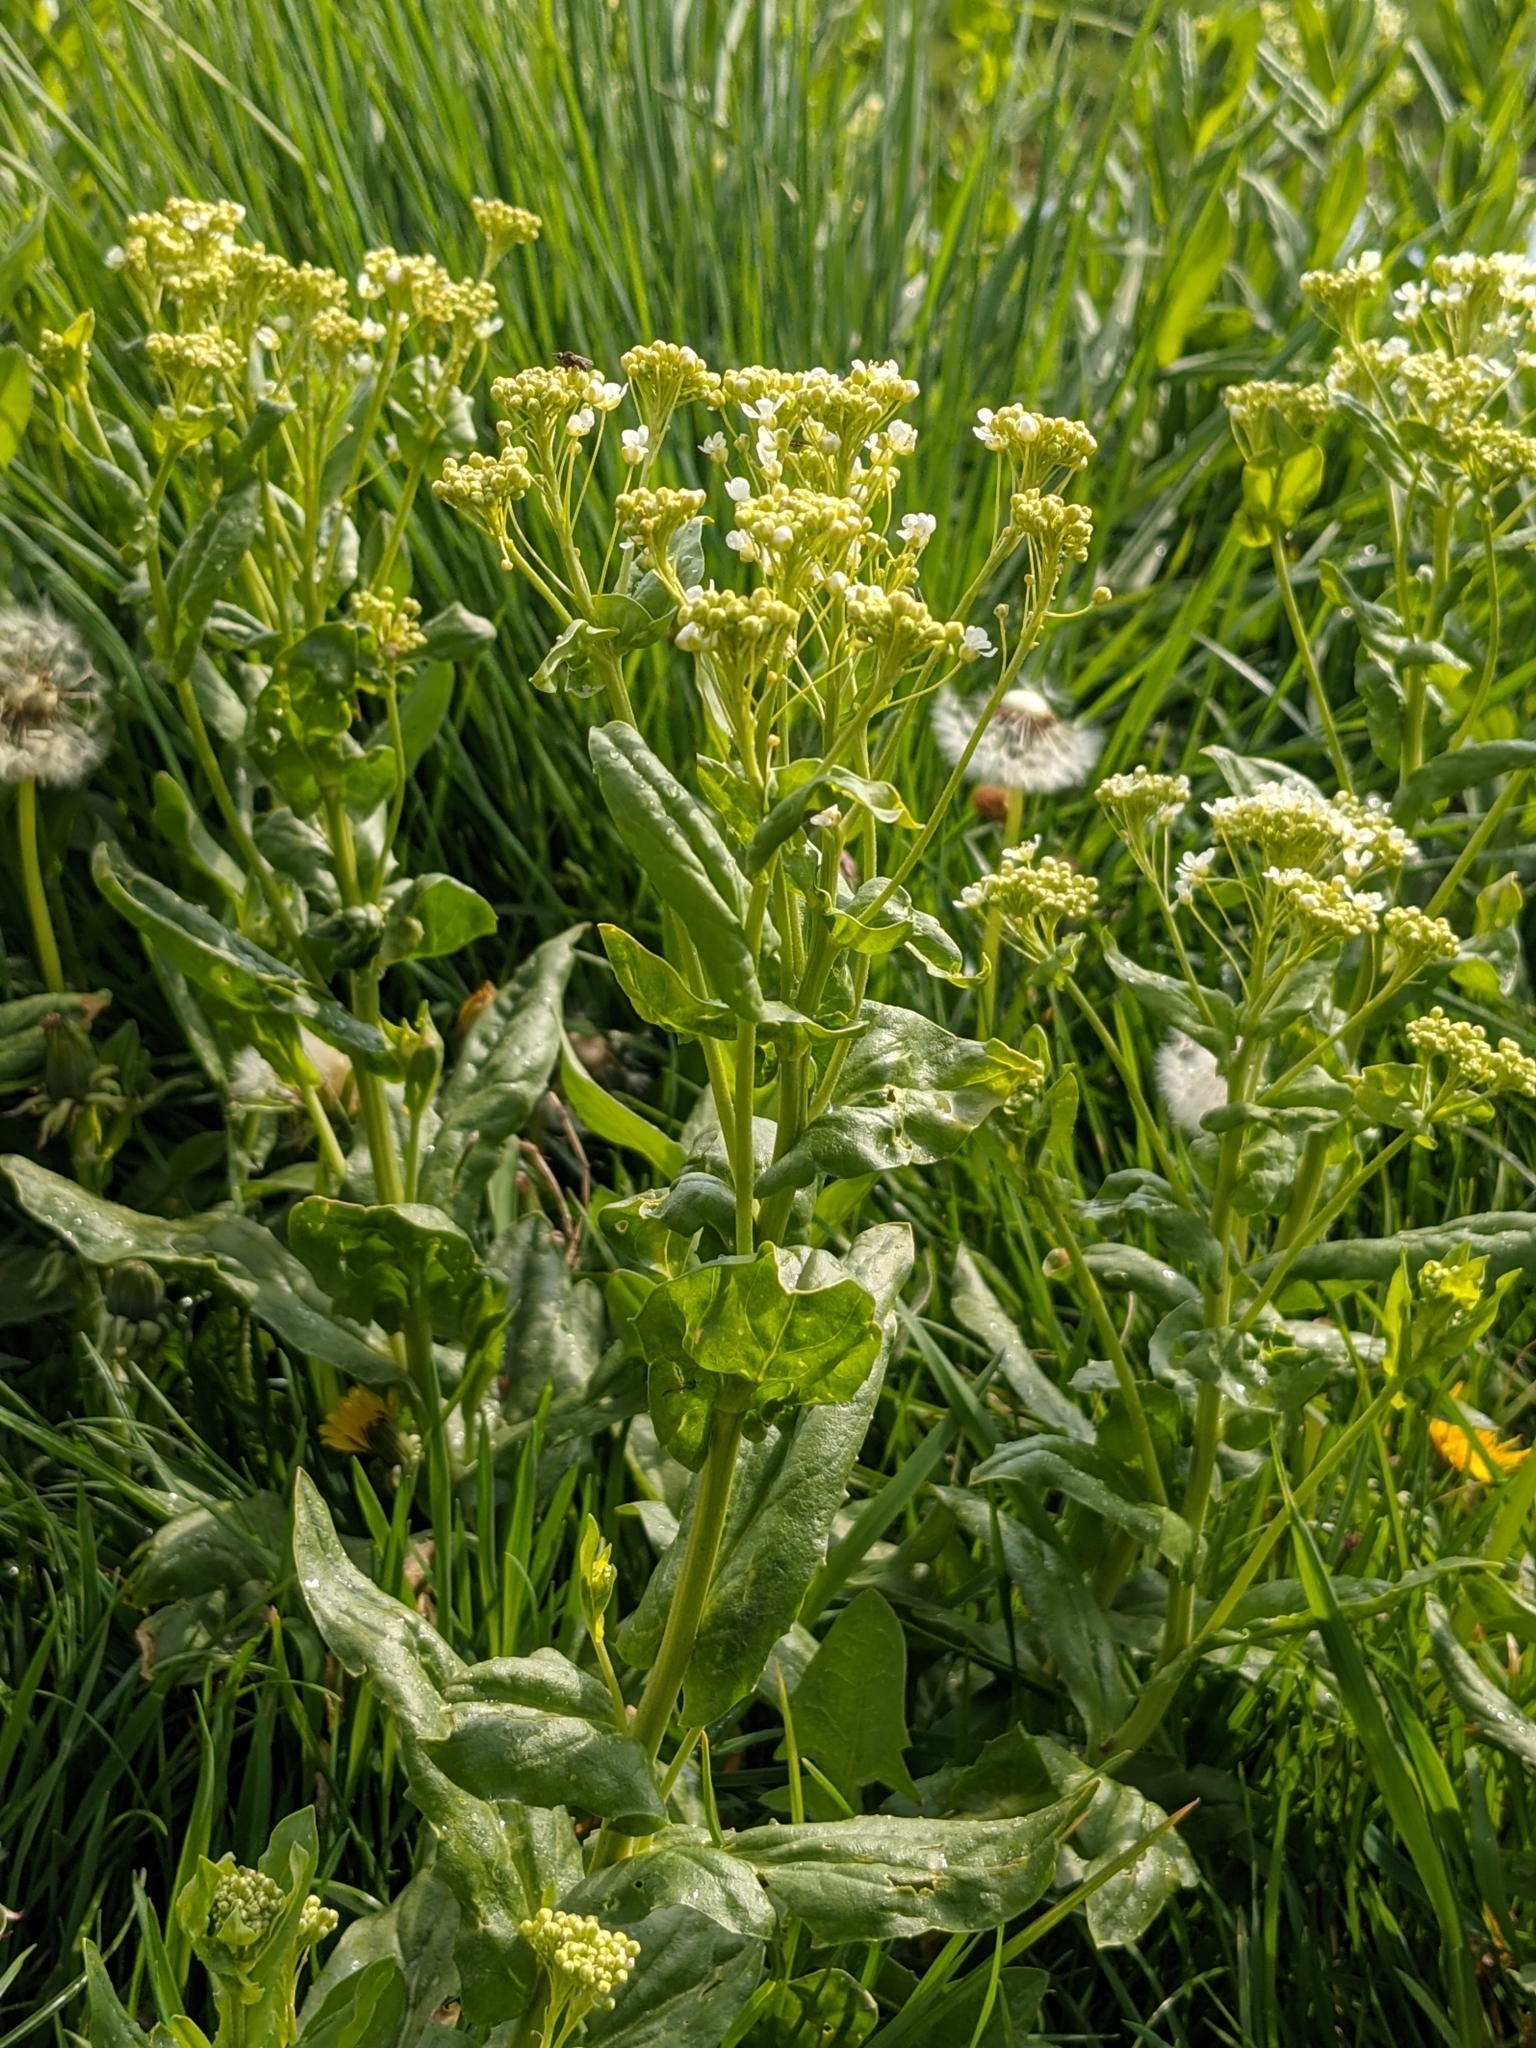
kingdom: Plantae
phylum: Tracheophyta
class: Magnoliopsida
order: Brassicales
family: Brassicaceae
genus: Lepidium
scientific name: Lepidium draba
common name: Hoary cress
